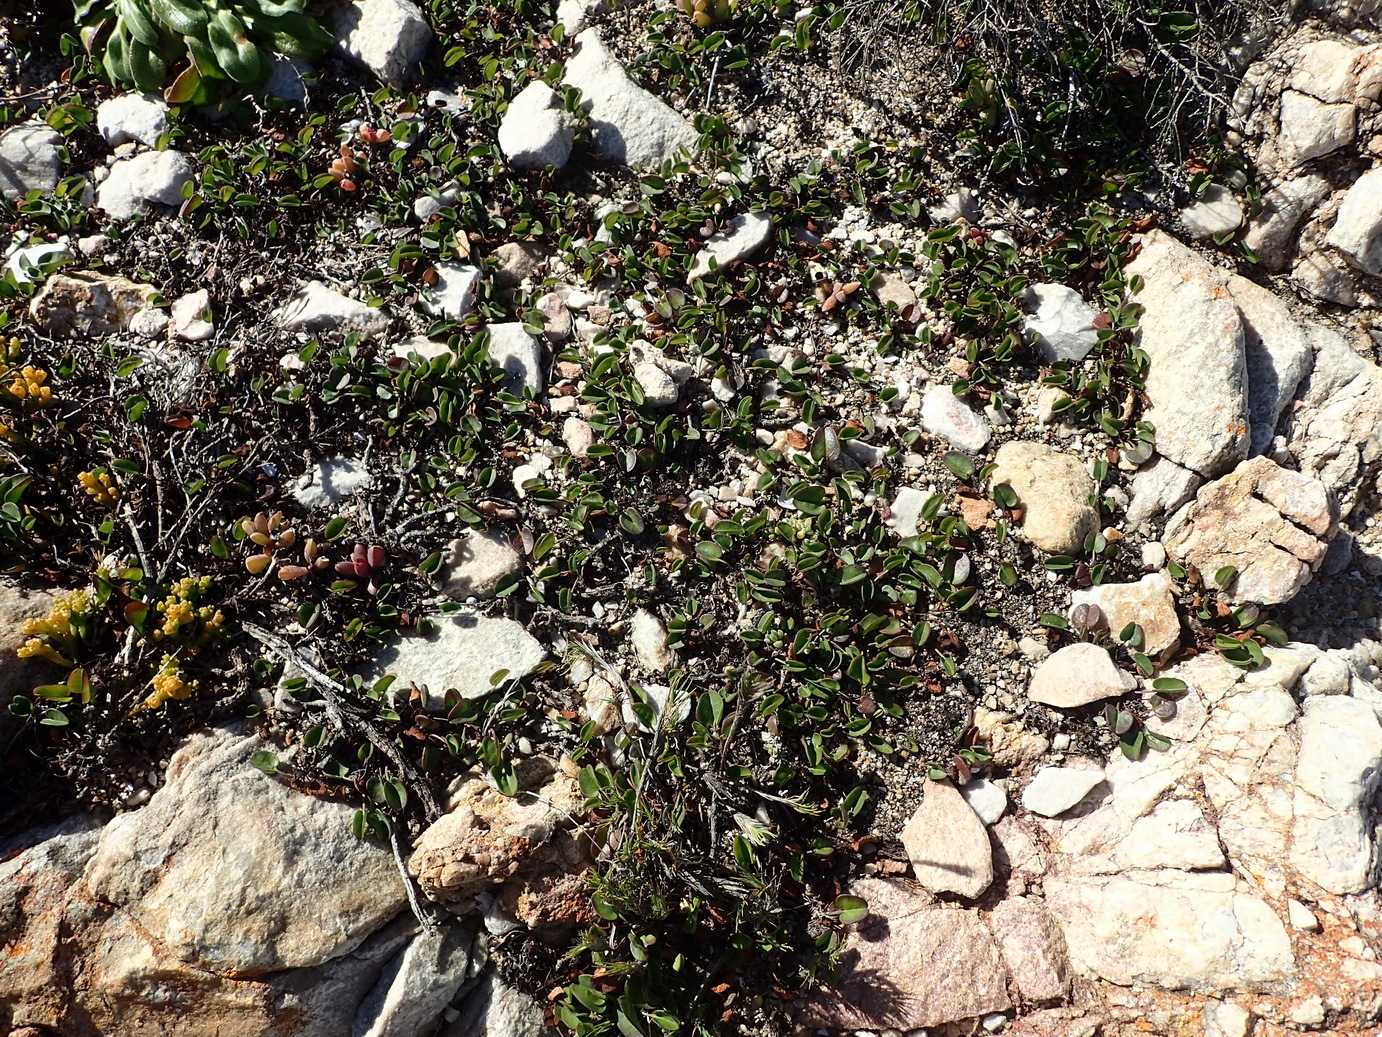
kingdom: Plantae
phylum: Tracheophyta
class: Magnoliopsida
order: Solanales
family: Convolvulaceae
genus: Falkia
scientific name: Falkia repens
